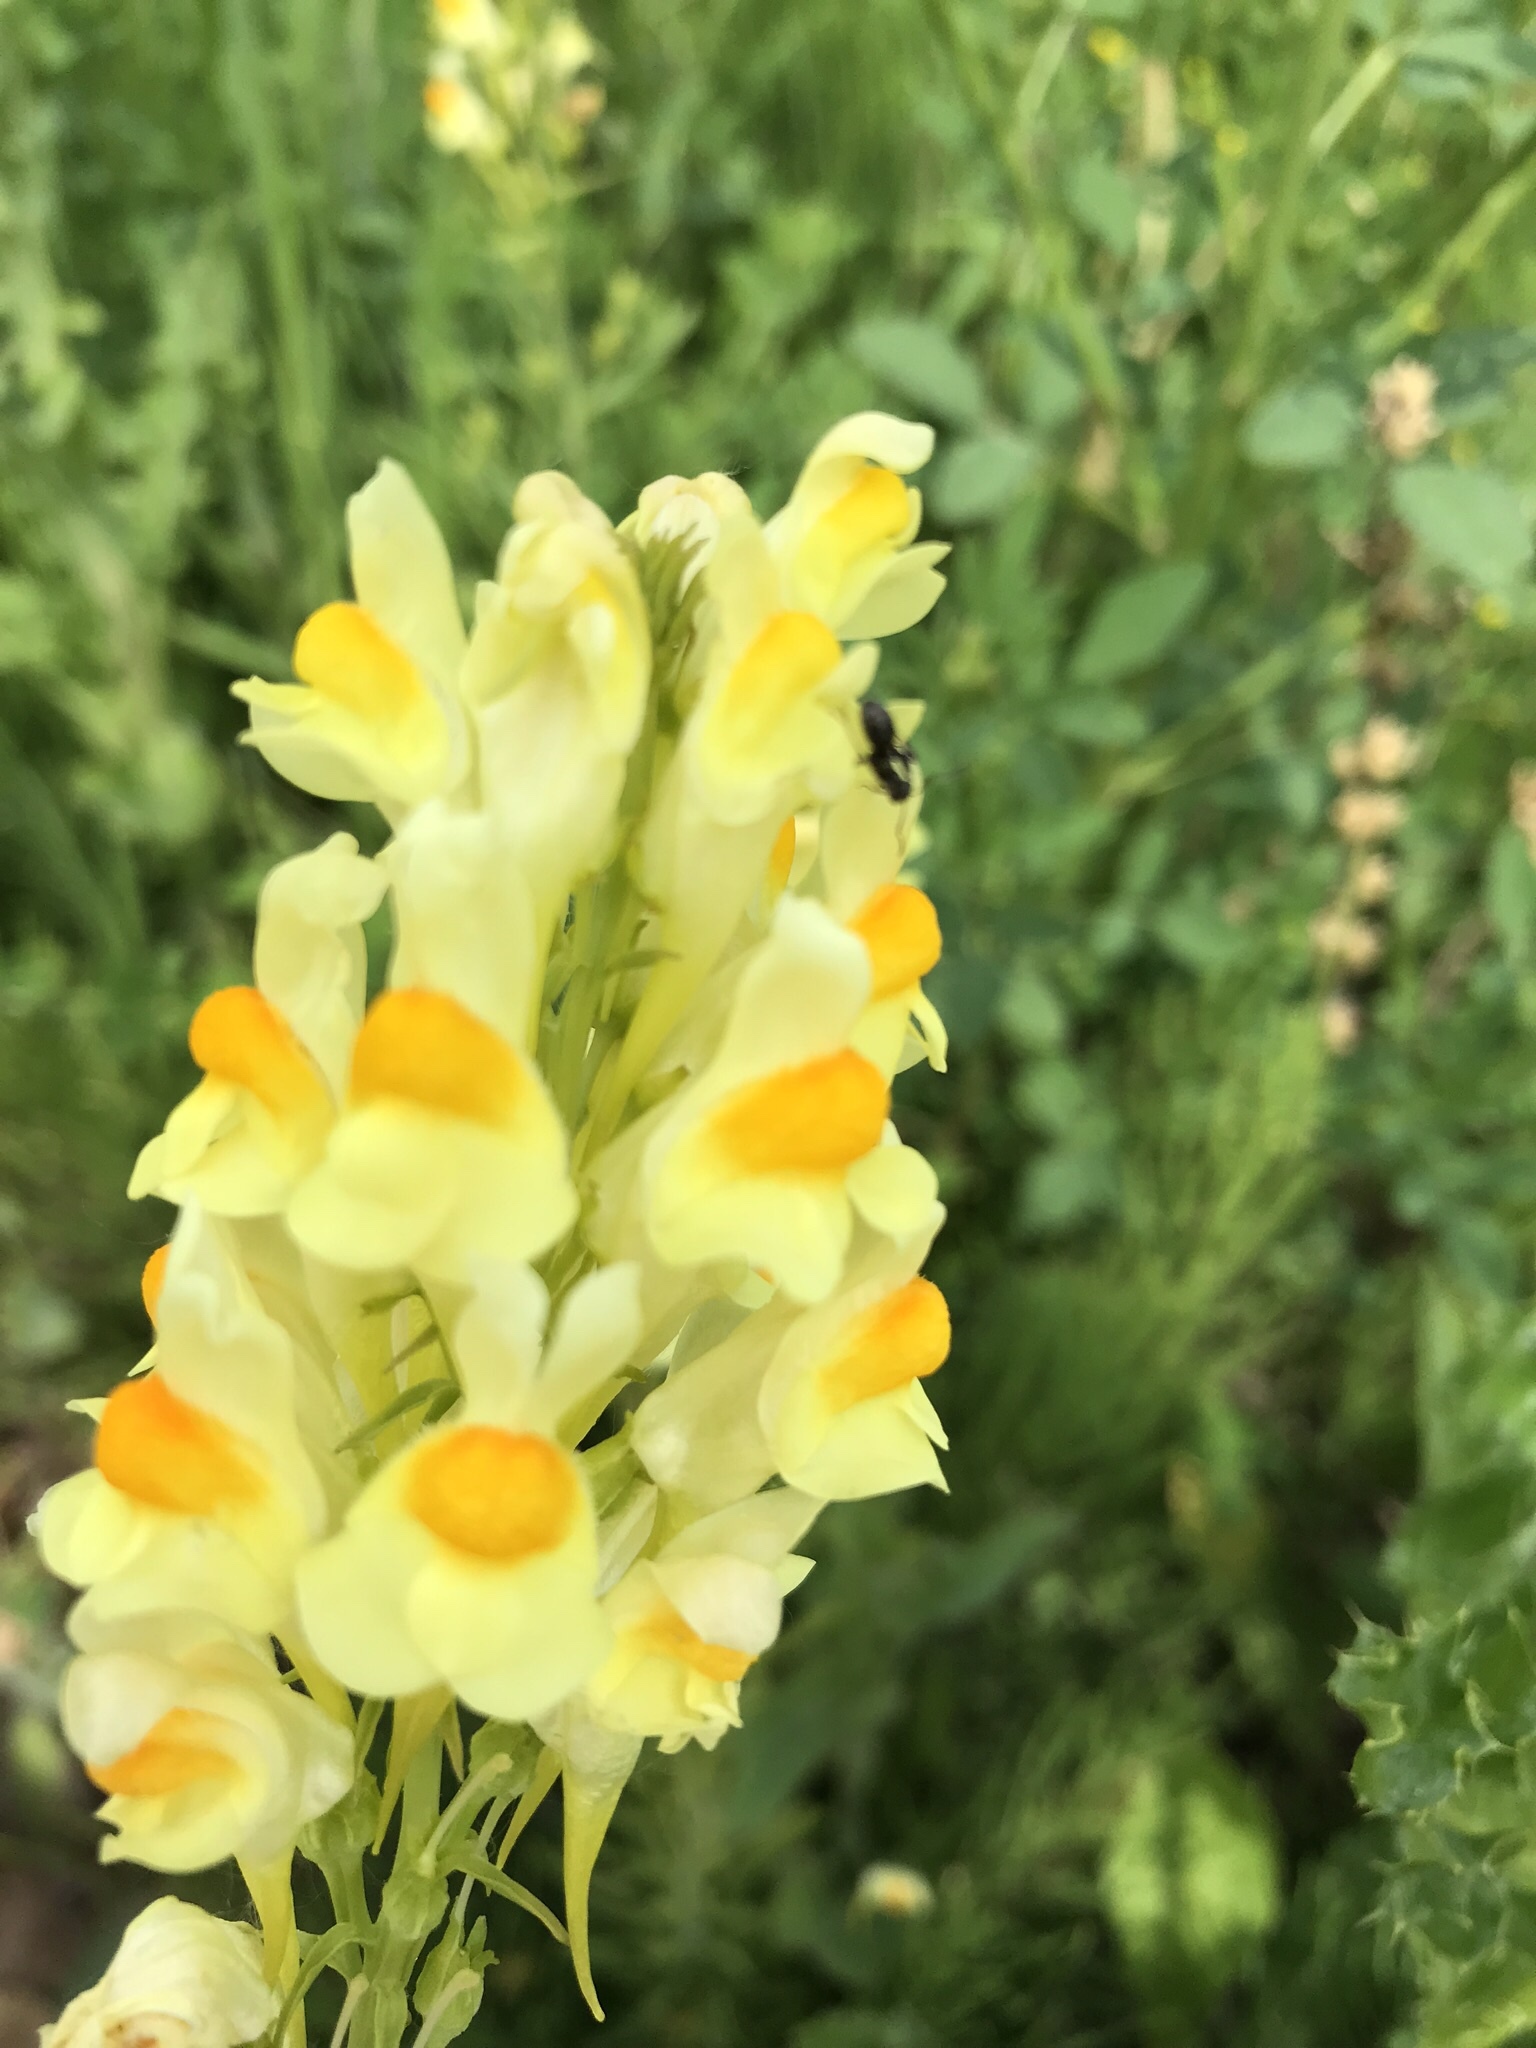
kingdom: Plantae
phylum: Tracheophyta
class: Magnoliopsida
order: Lamiales
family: Plantaginaceae
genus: Linaria
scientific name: Linaria vulgaris
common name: Butter and eggs
